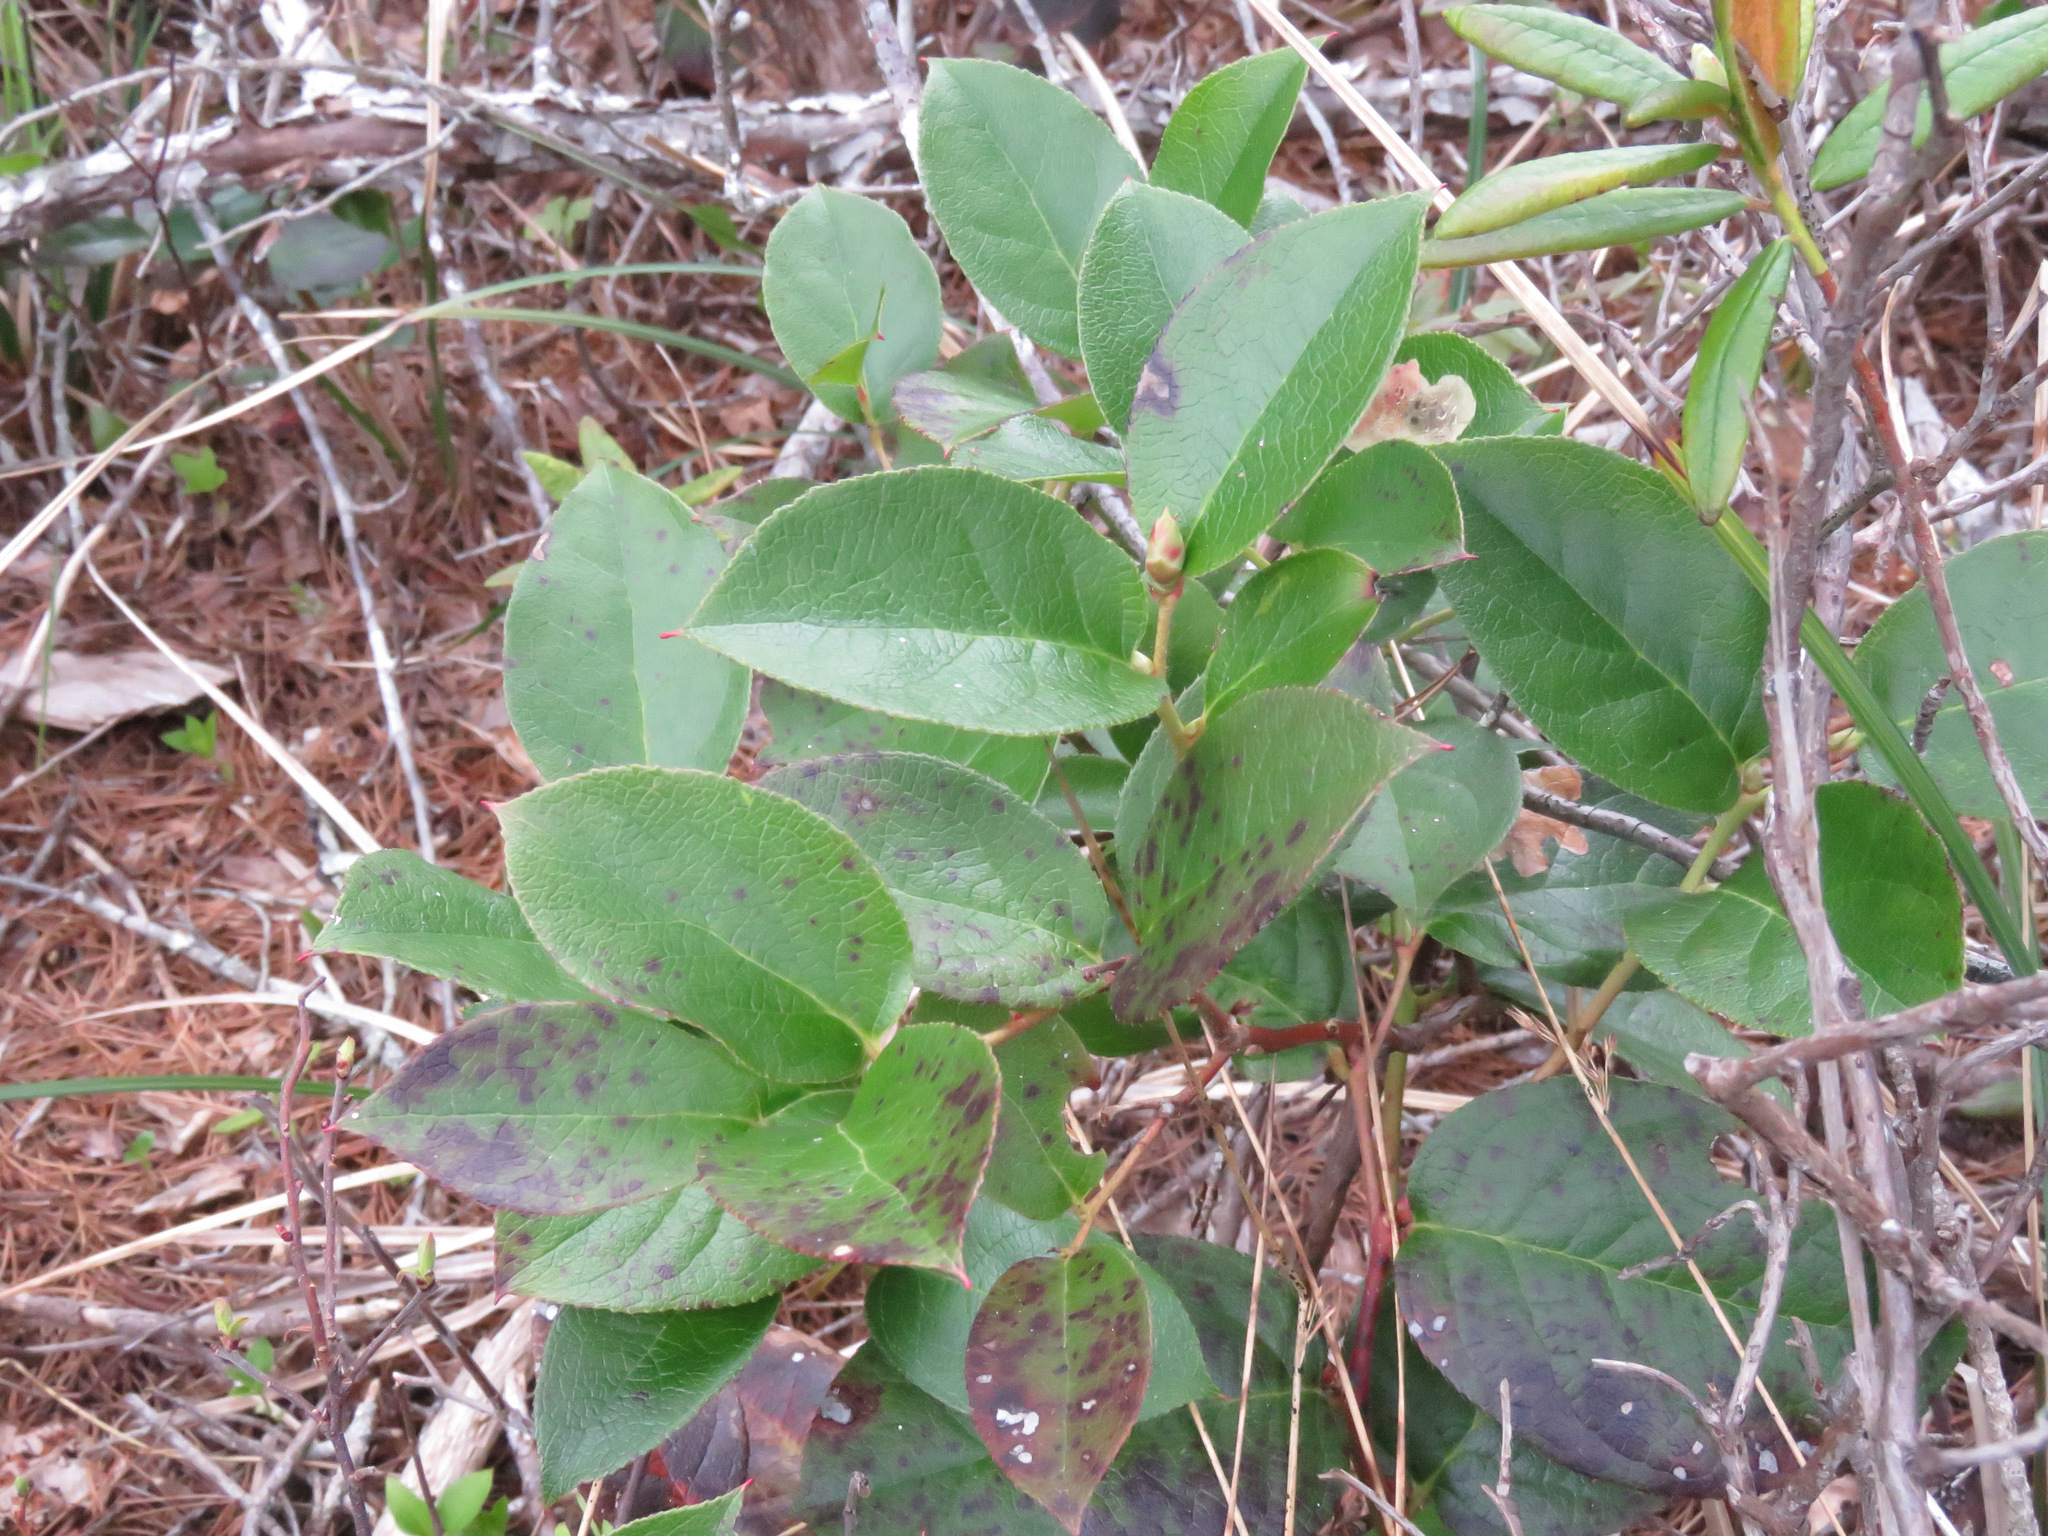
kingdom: Plantae
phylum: Tracheophyta
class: Magnoliopsida
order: Ericales
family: Ericaceae
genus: Gaultheria
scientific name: Gaultheria shallon
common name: Shallon
